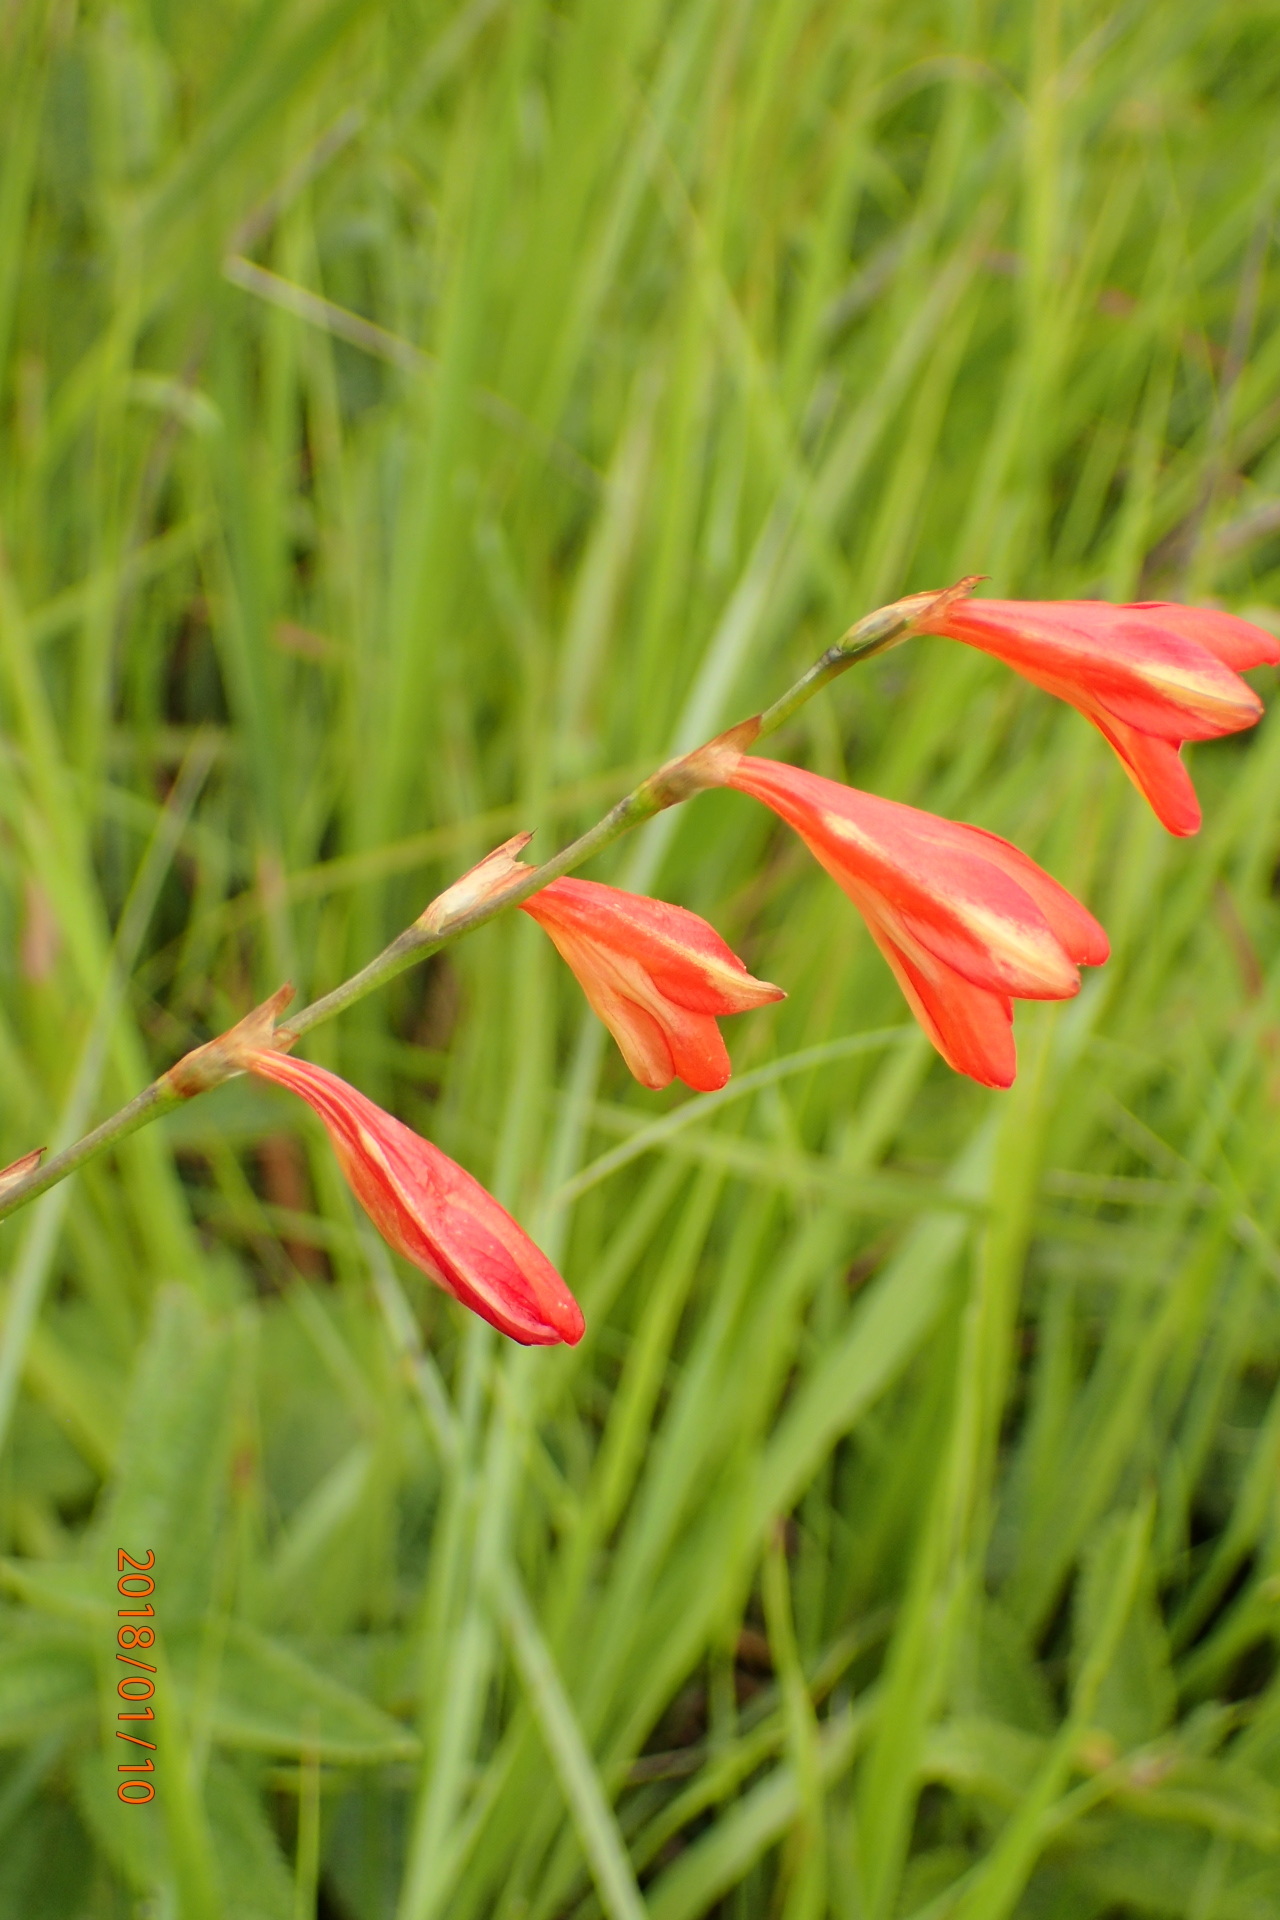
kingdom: Plantae
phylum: Tracheophyta
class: Liliopsida
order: Asparagales
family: Iridaceae
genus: Tritonia
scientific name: Tritonia disticha
